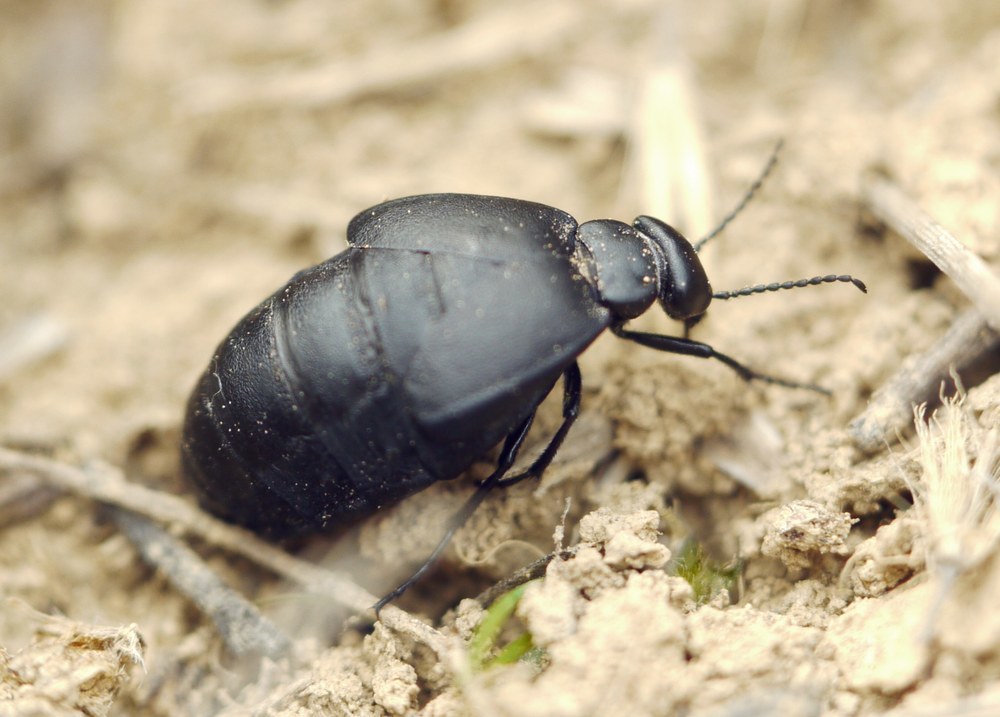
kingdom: Animalia
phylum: Arthropoda
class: Insecta
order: Coleoptera
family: Meloidae
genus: Meloe
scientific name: Meloe uralensis
